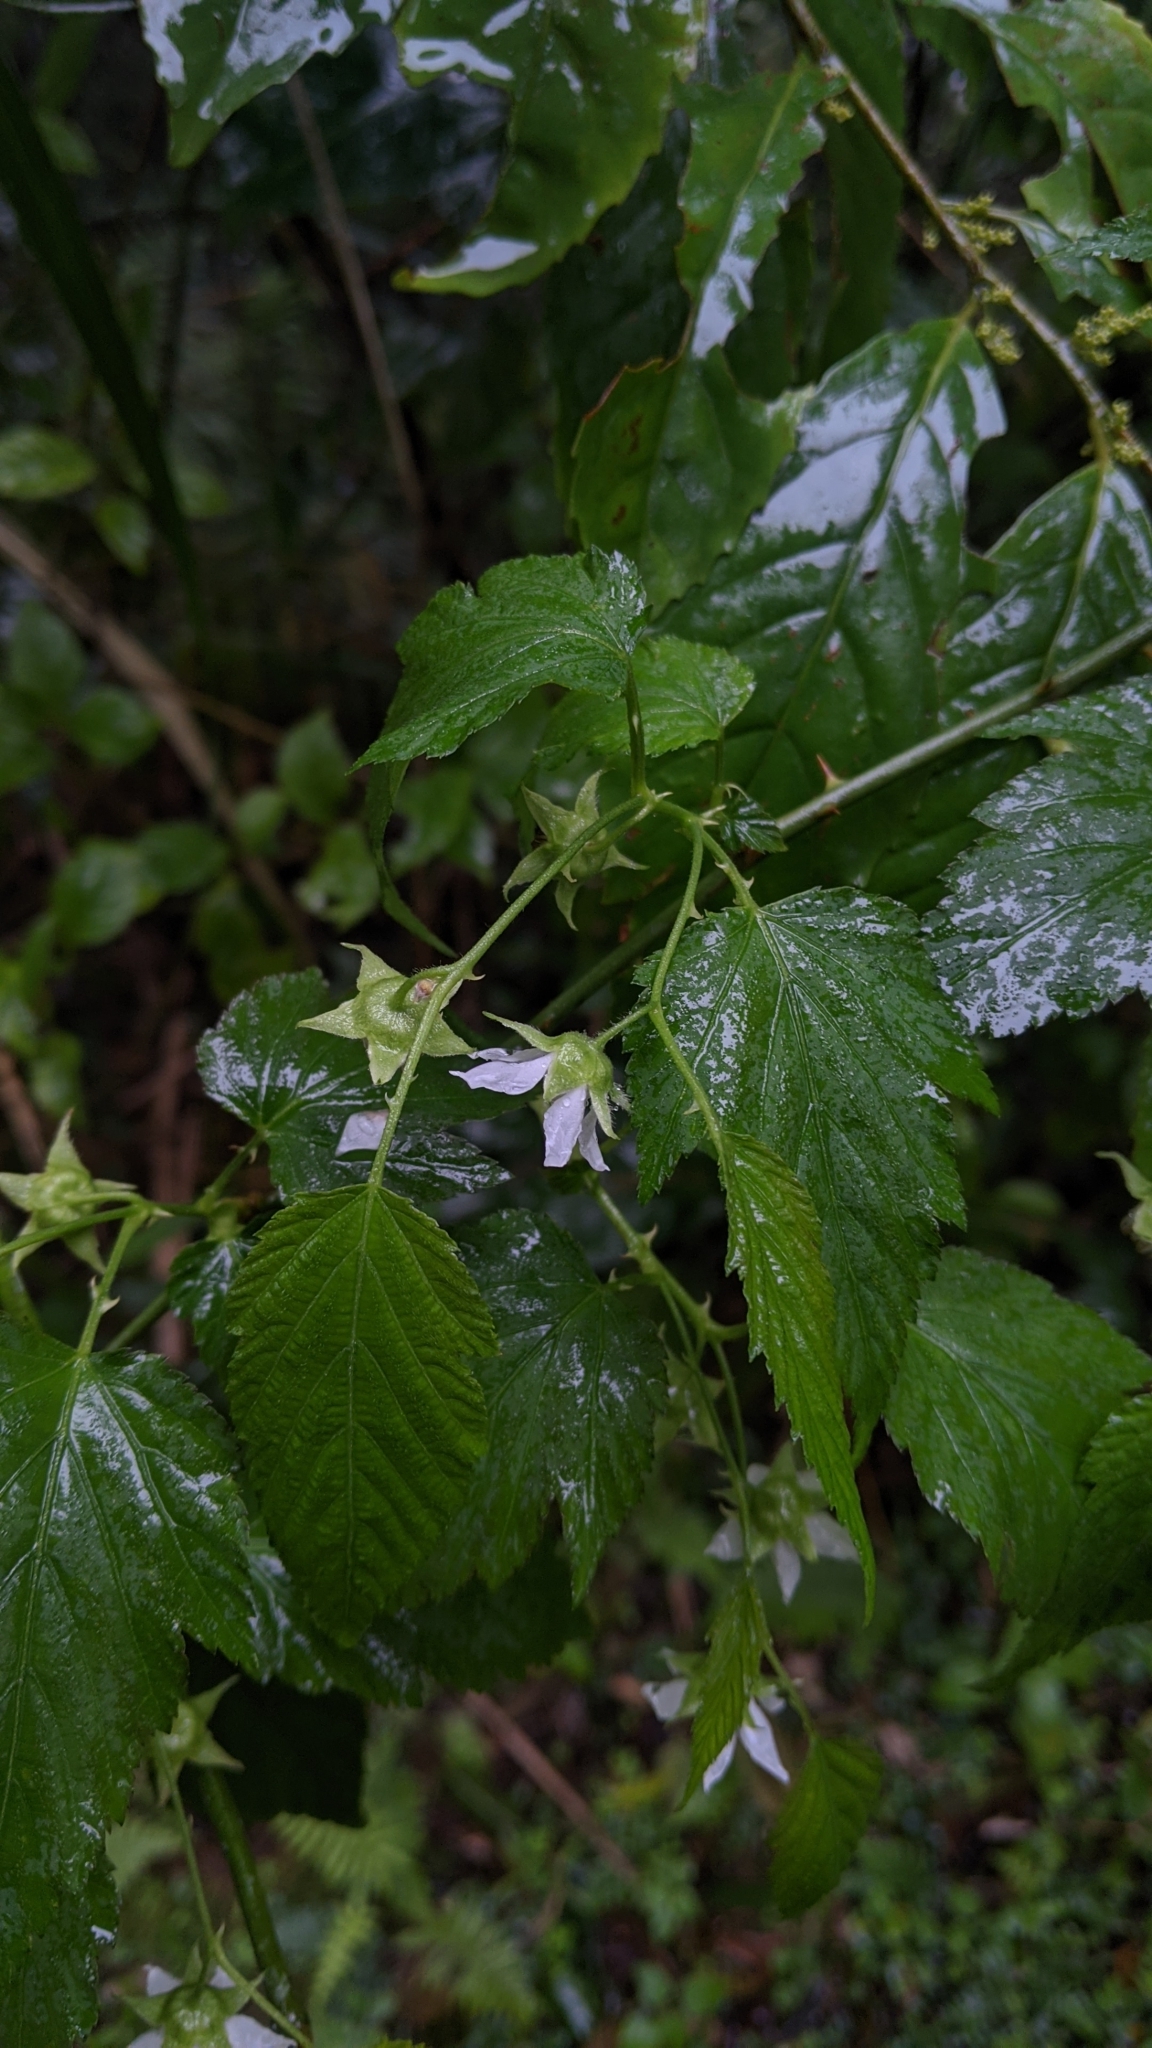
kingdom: Plantae
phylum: Tracheophyta
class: Magnoliopsida
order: Rosales
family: Rosaceae
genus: Rubus
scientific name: Rubus corchorifolius
